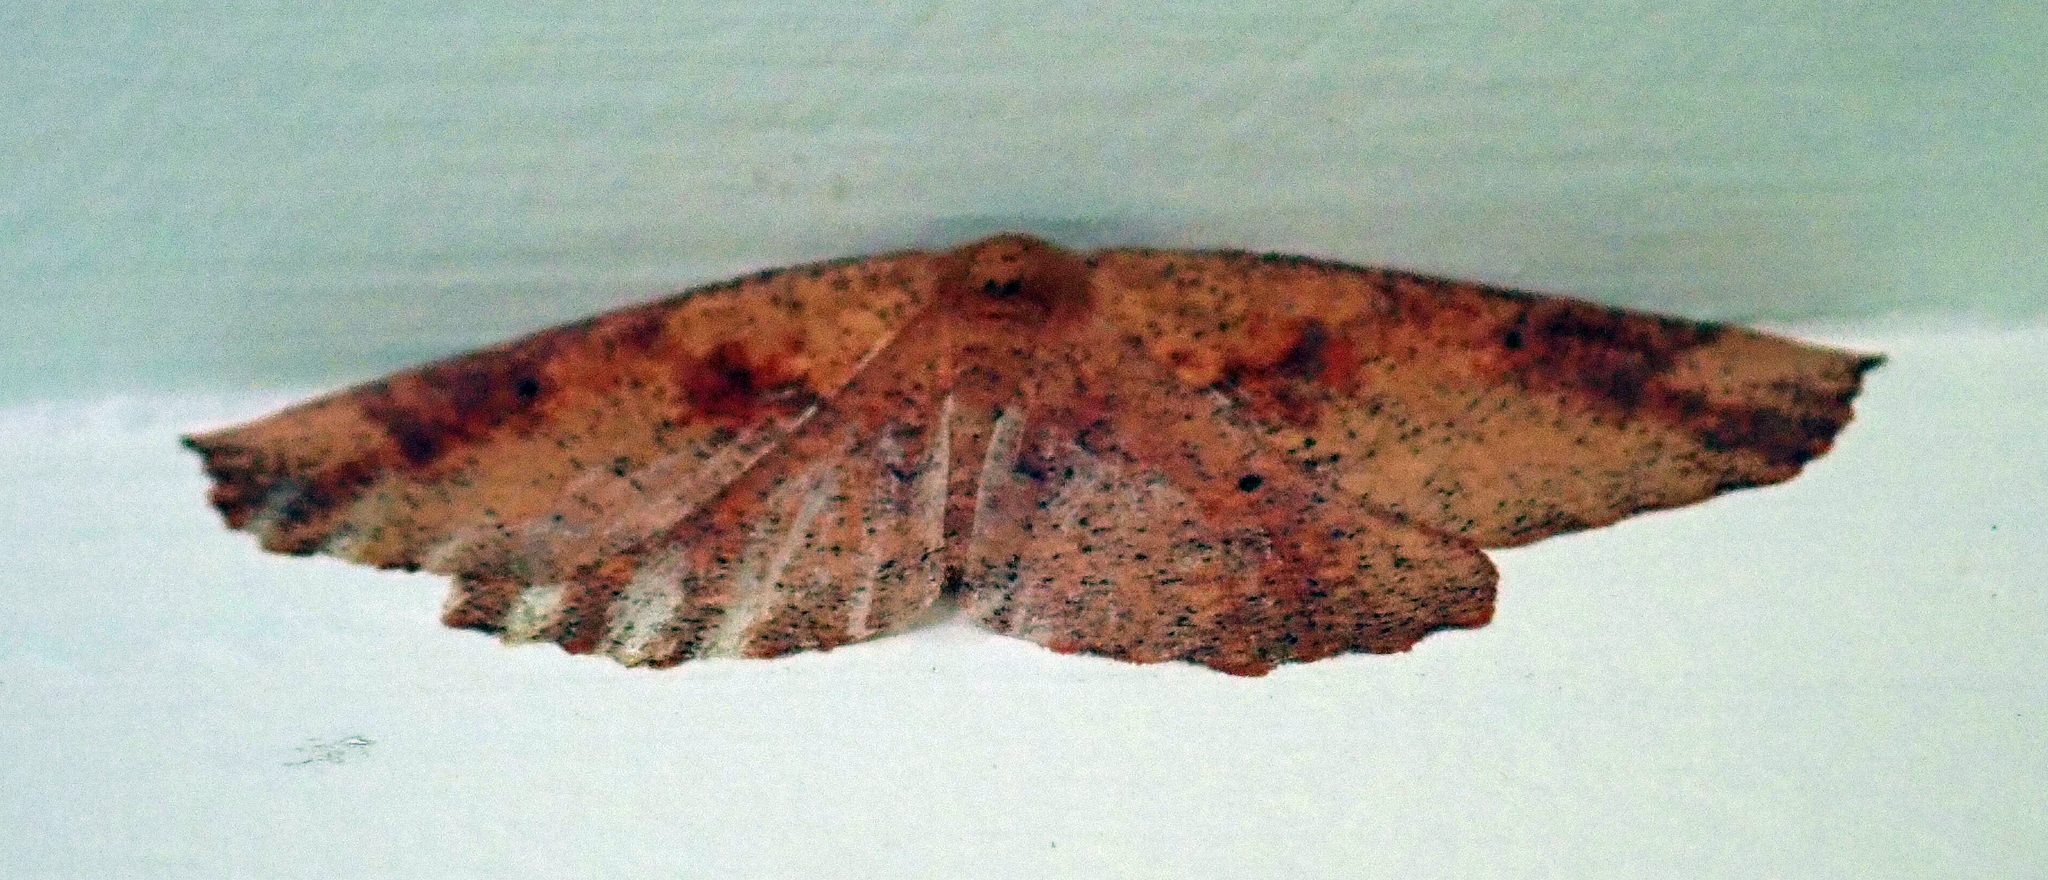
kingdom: Animalia
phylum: Arthropoda
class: Insecta
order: Lepidoptera
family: Geometridae
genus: Xyridacma
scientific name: Xyridacma ustaria
